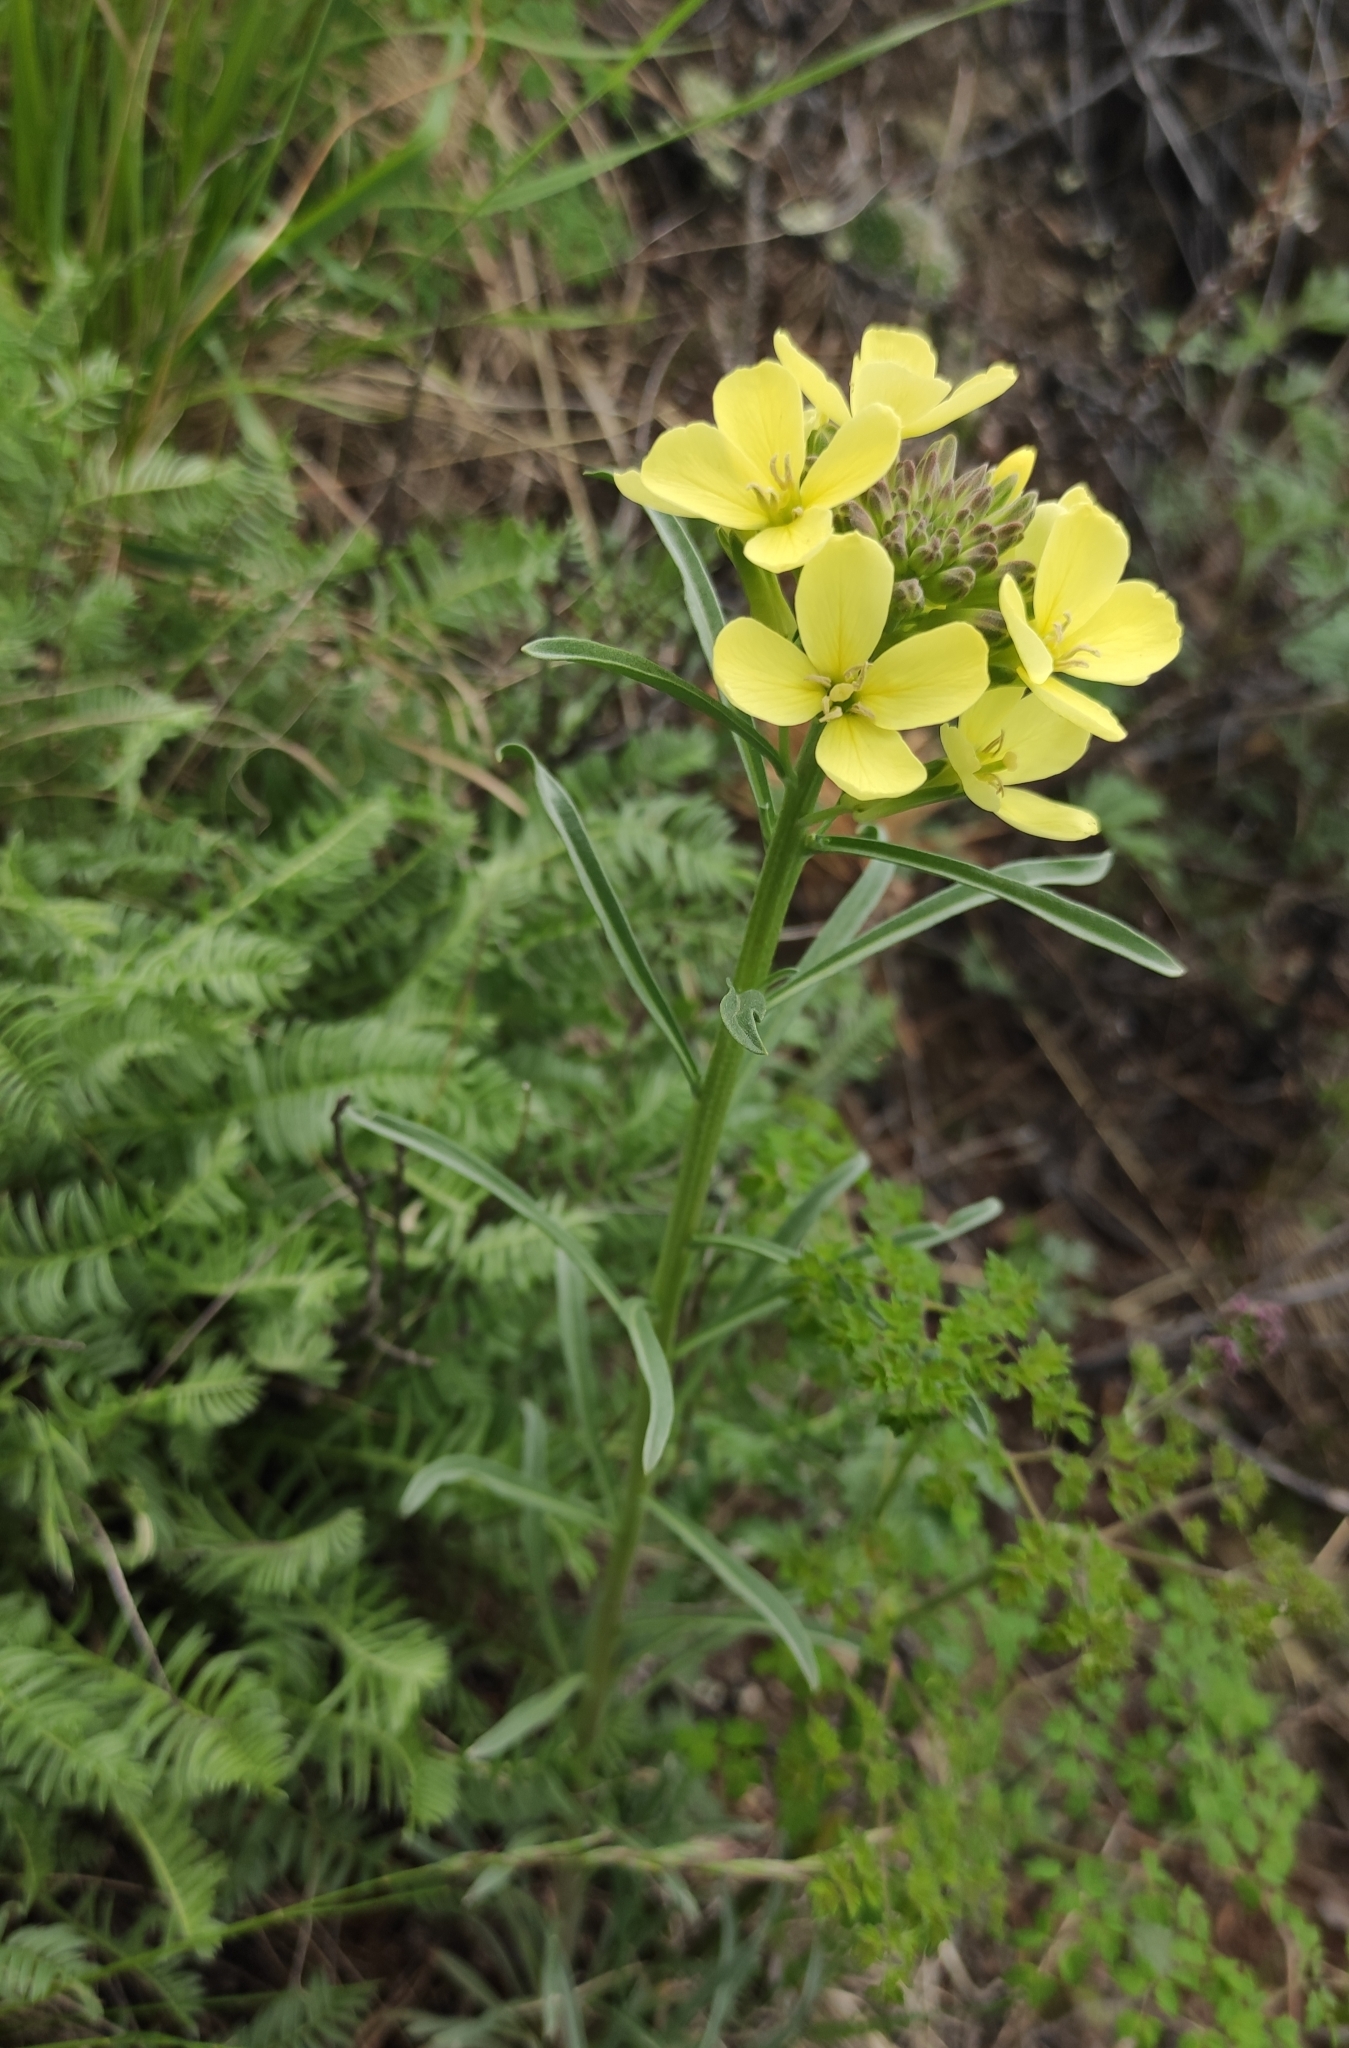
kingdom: Plantae
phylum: Tracheophyta
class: Magnoliopsida
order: Brassicales
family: Brassicaceae
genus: Erysimum
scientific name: Erysimum flavum
